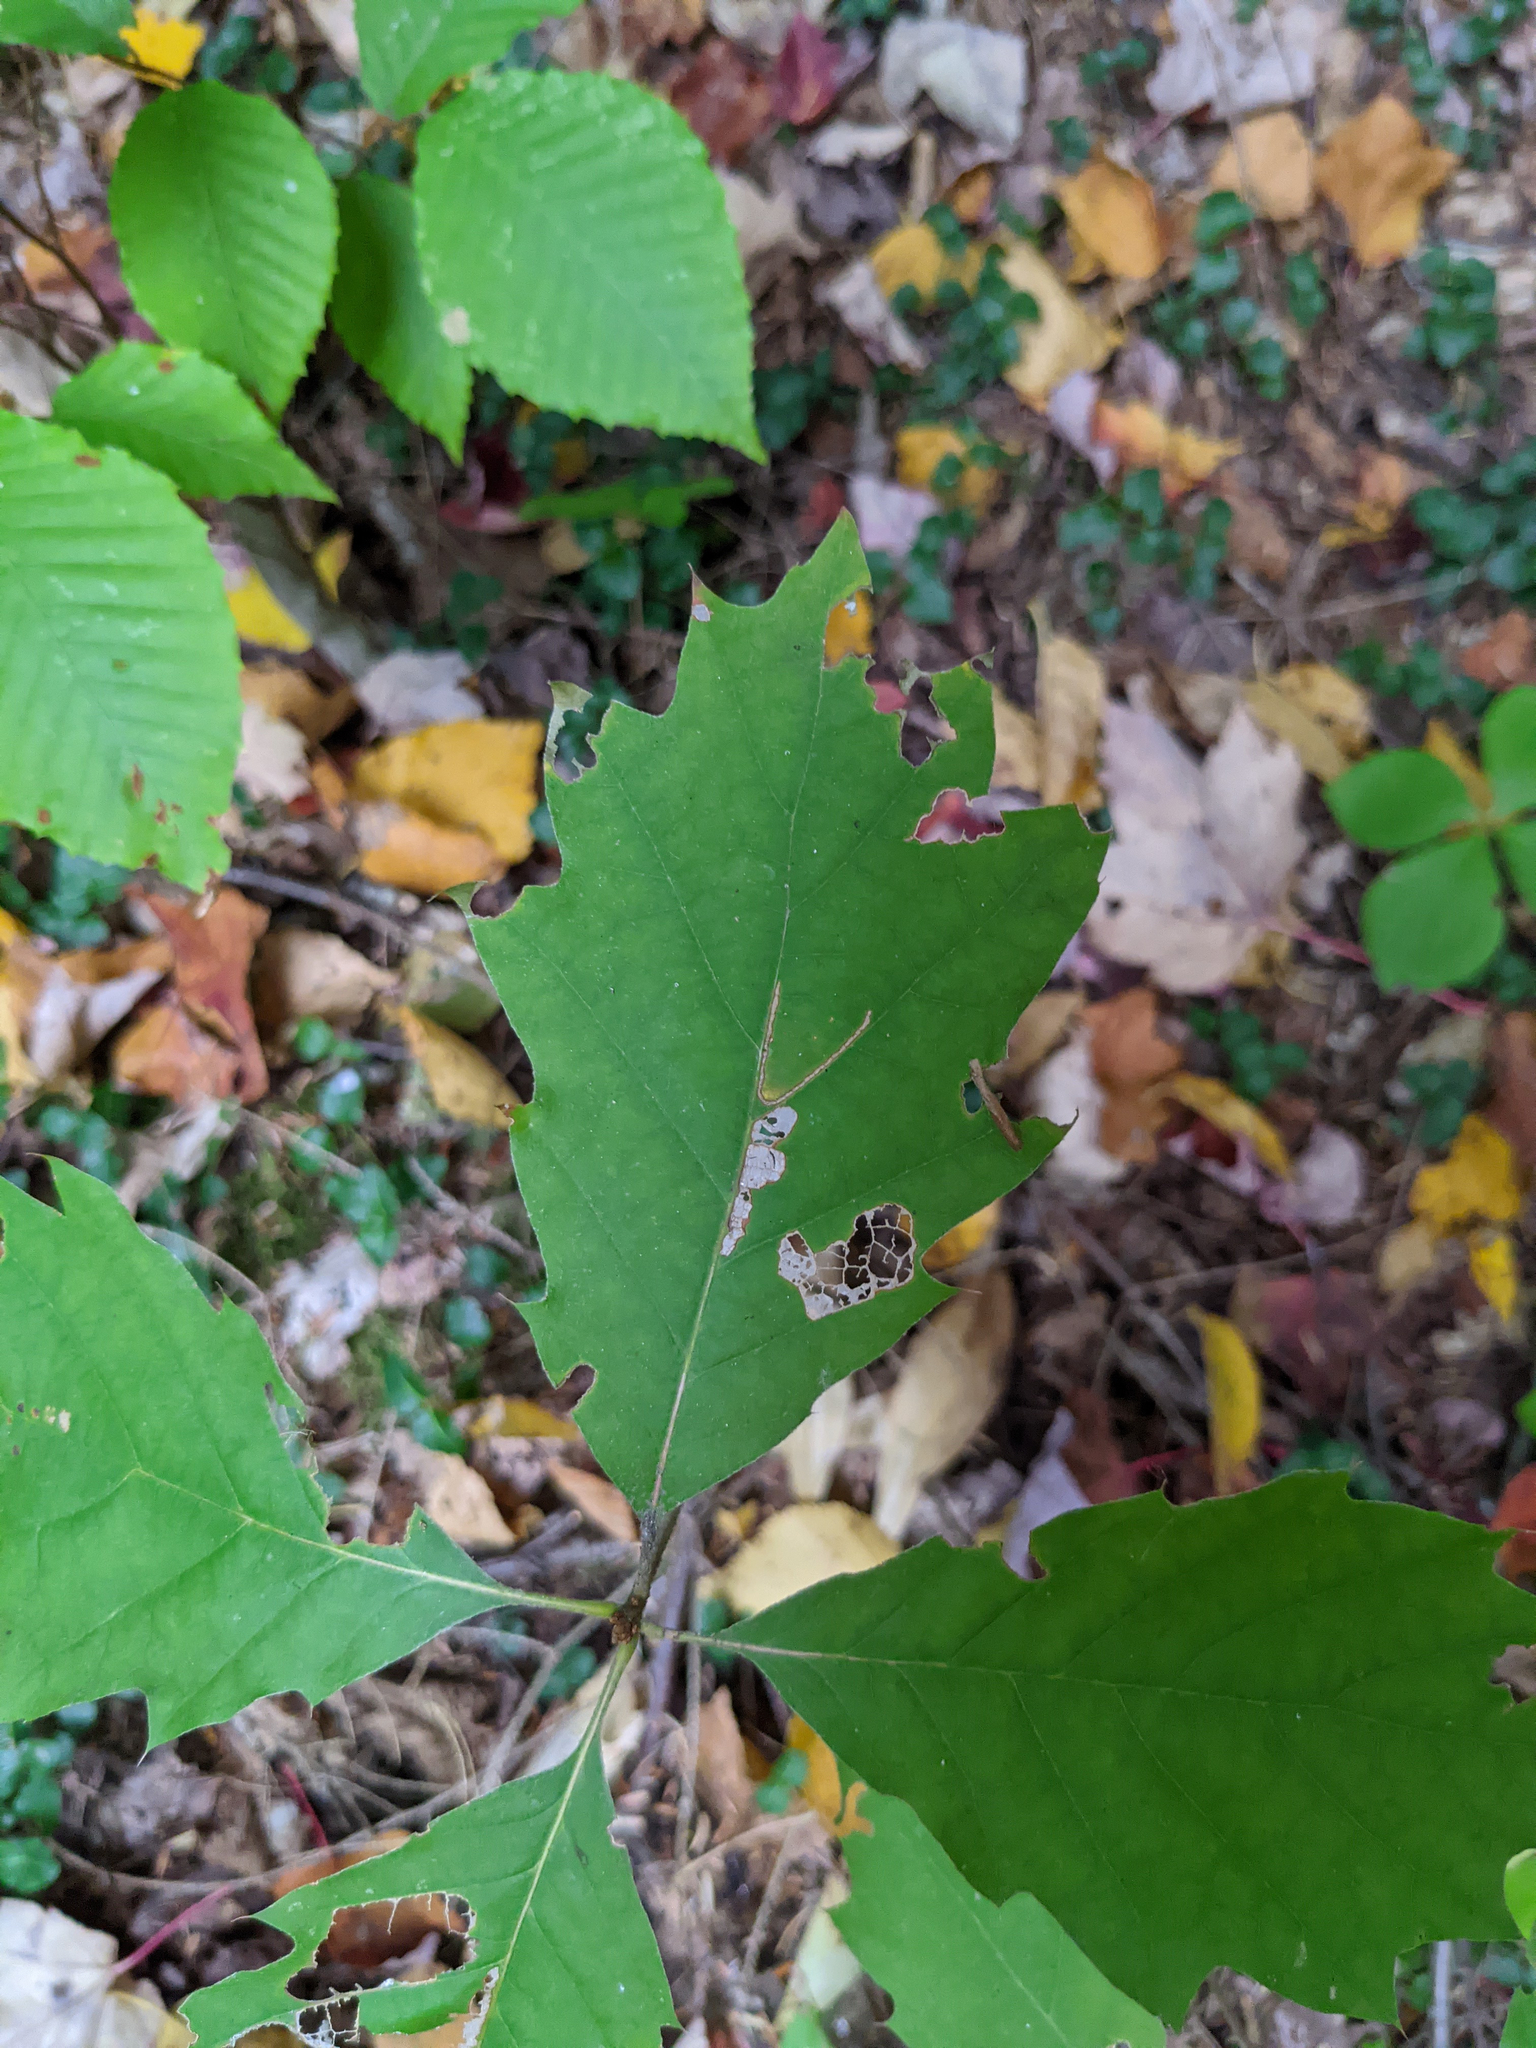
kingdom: Plantae
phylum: Tracheophyta
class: Magnoliopsida
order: Fagales
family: Fagaceae
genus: Quercus
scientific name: Quercus rubra
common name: Red oak
